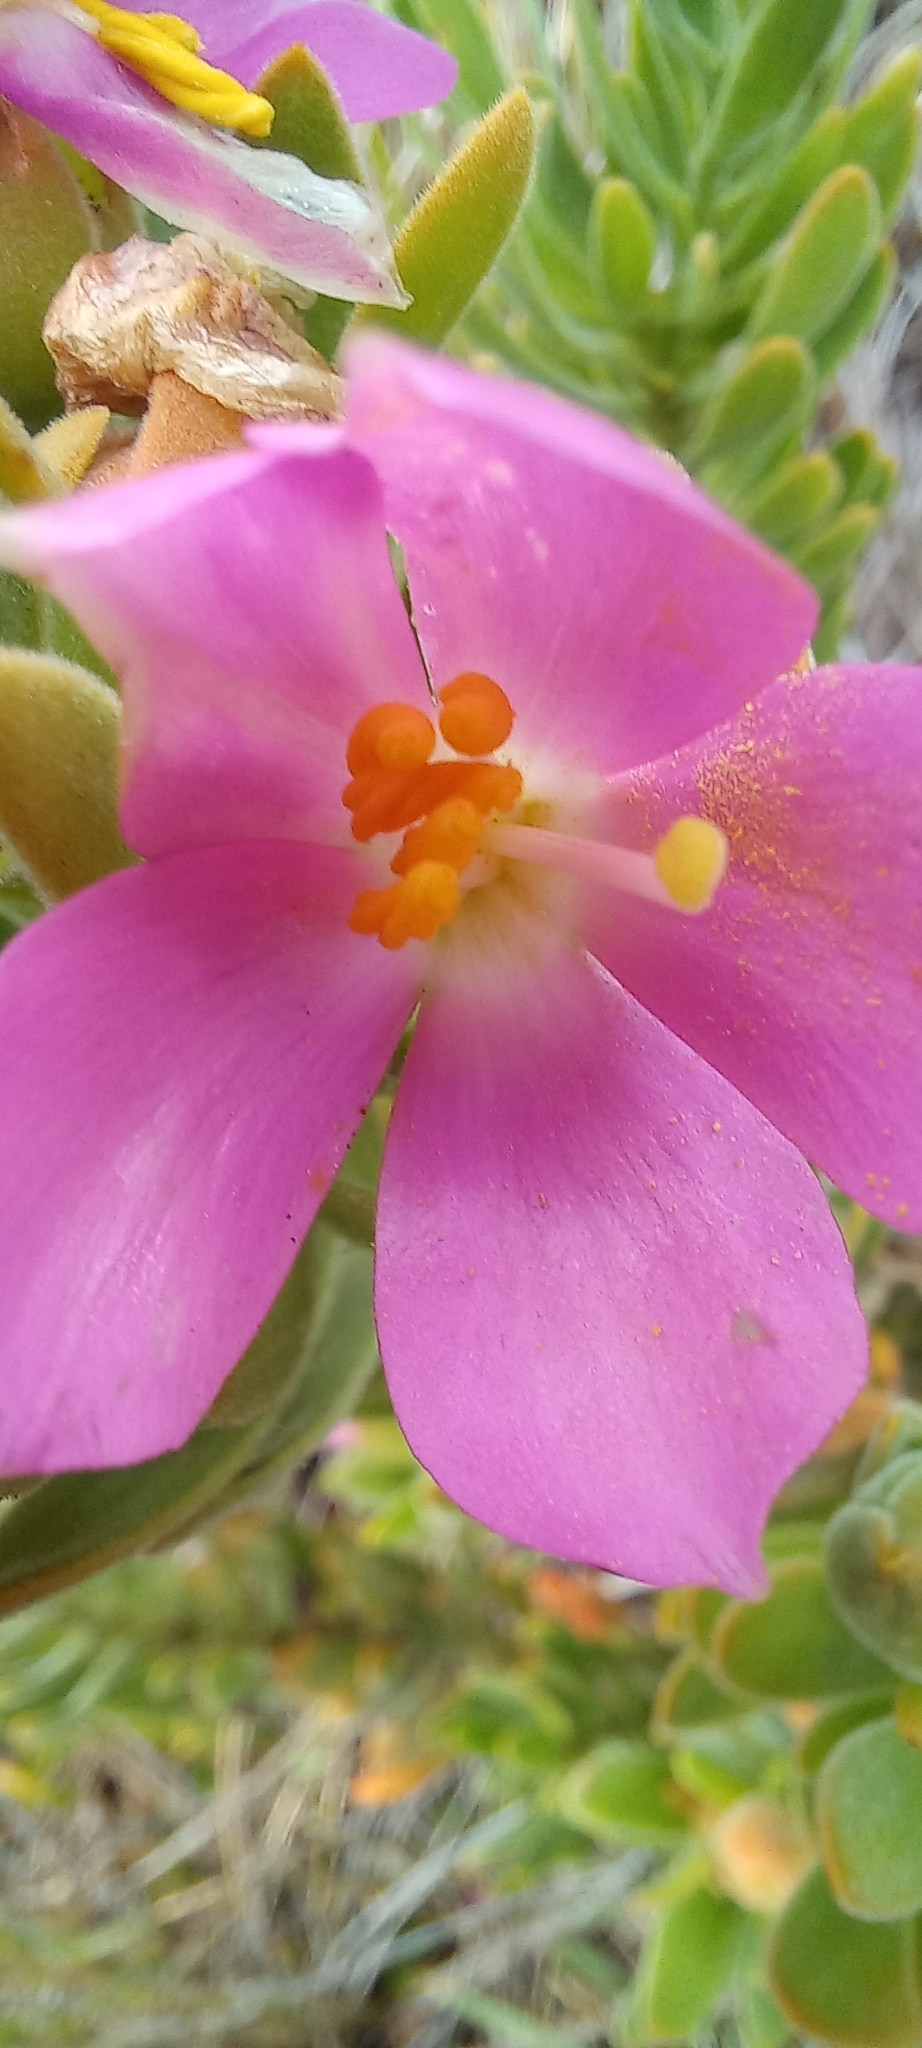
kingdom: Plantae
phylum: Tracheophyta
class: Magnoliopsida
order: Gentianales
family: Gentianaceae
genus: Orphium
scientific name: Orphium frutescens
